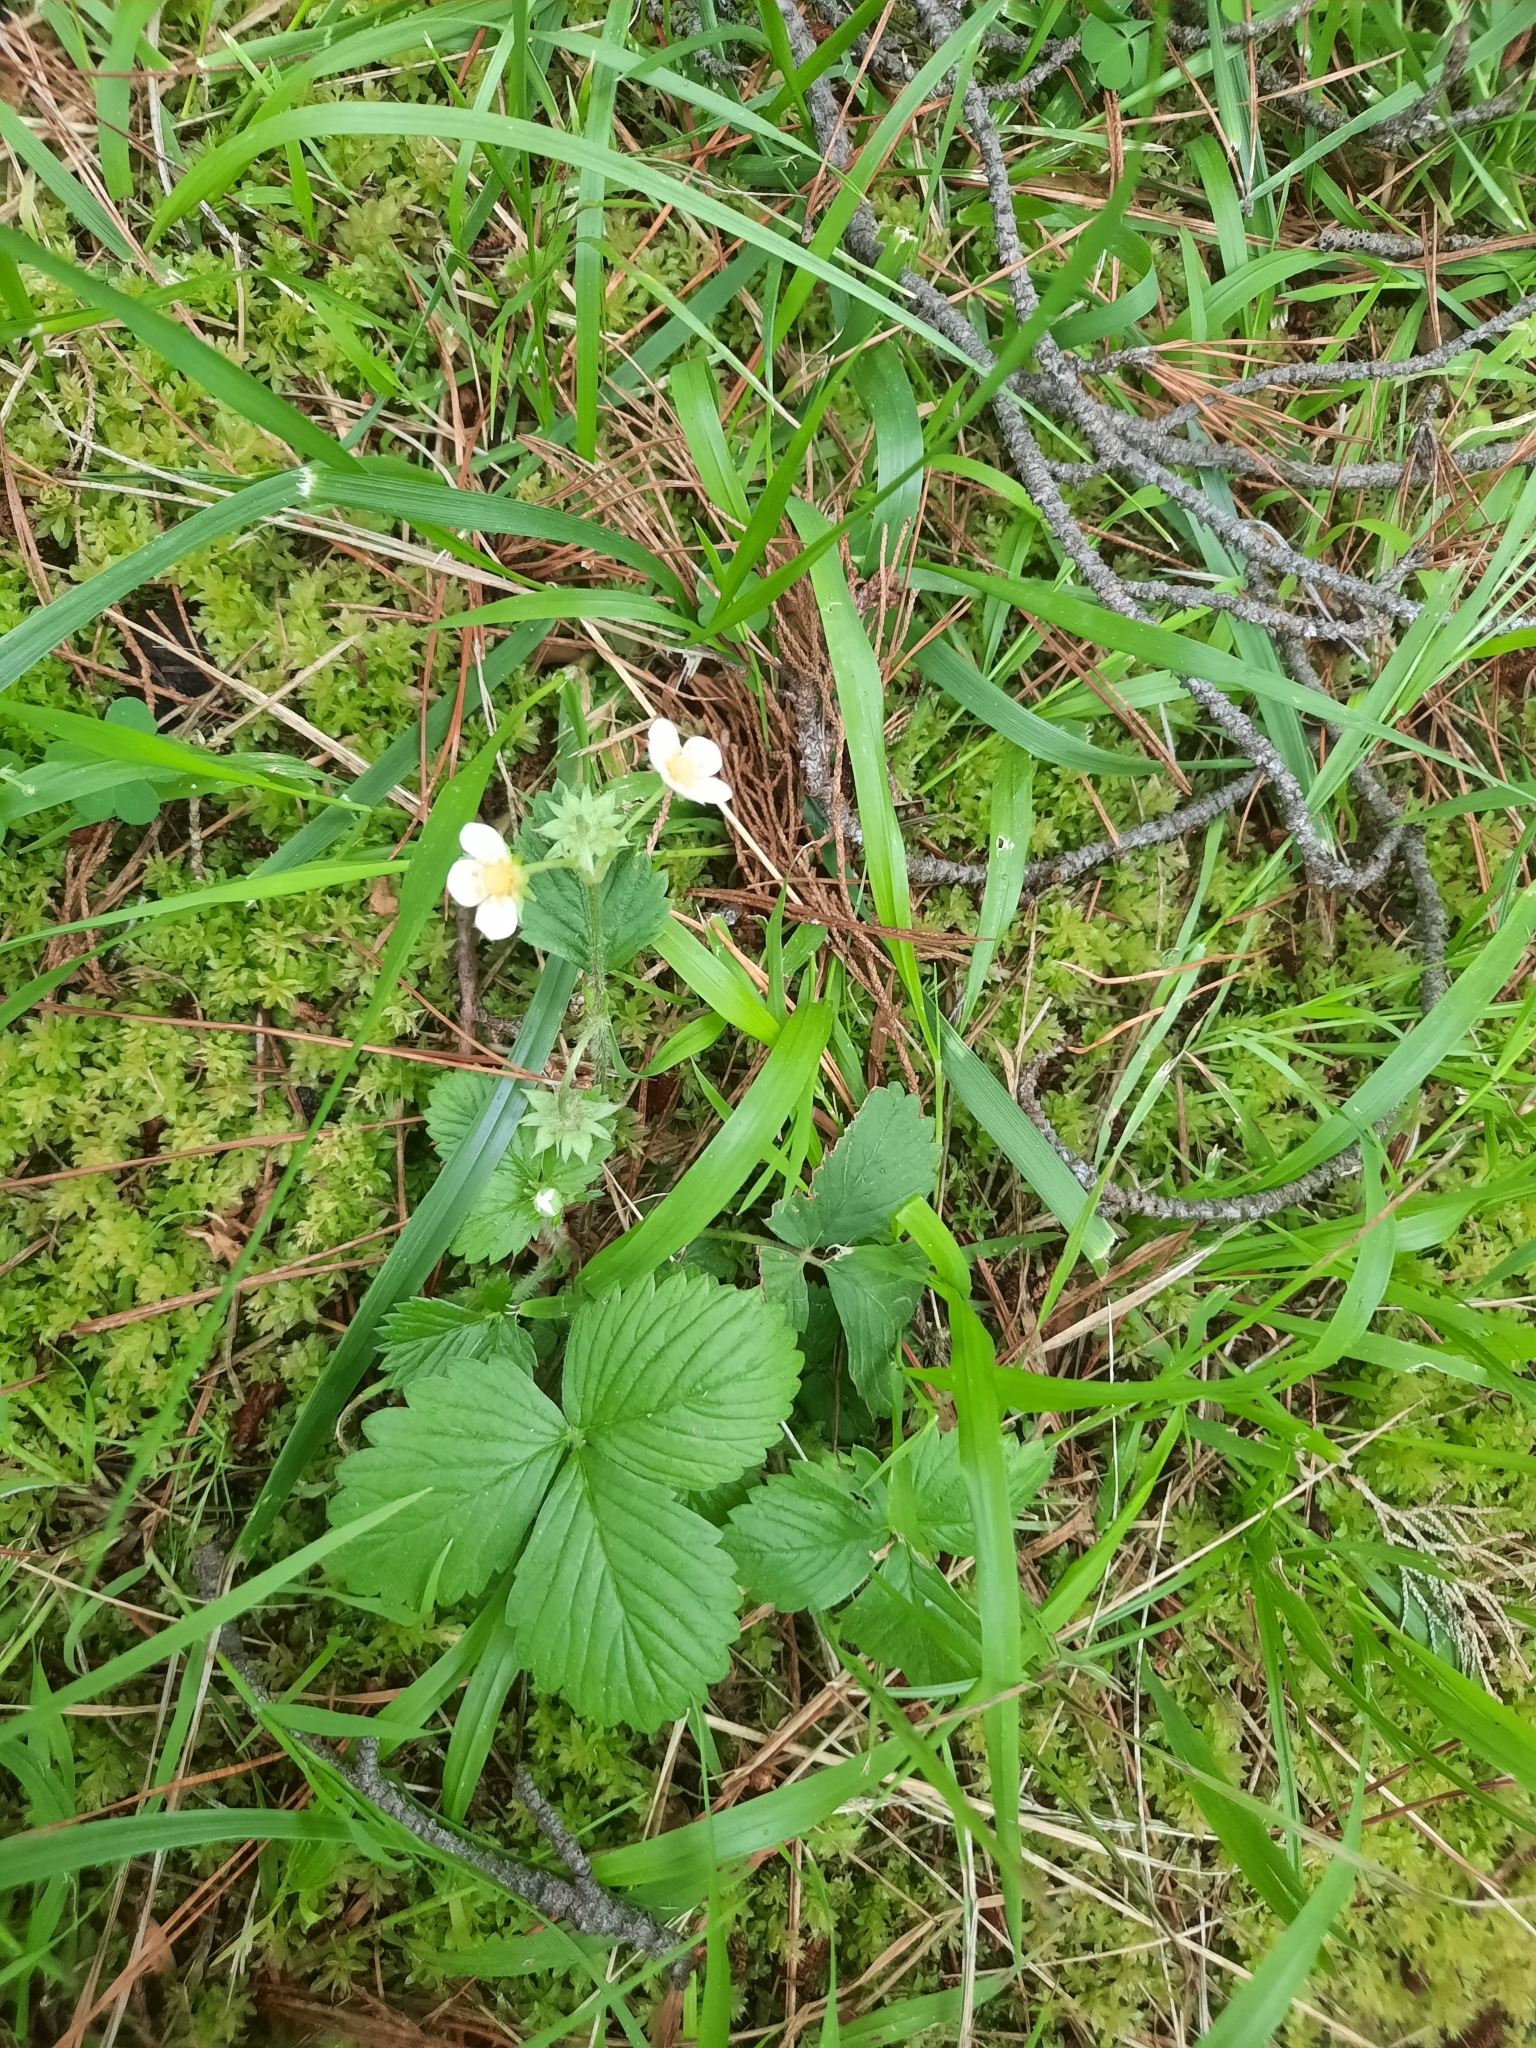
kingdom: Plantae
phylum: Tracheophyta
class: Magnoliopsida
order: Rosales
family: Rosaceae
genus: Fragaria
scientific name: Fragaria vesca
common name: Wild strawberry
